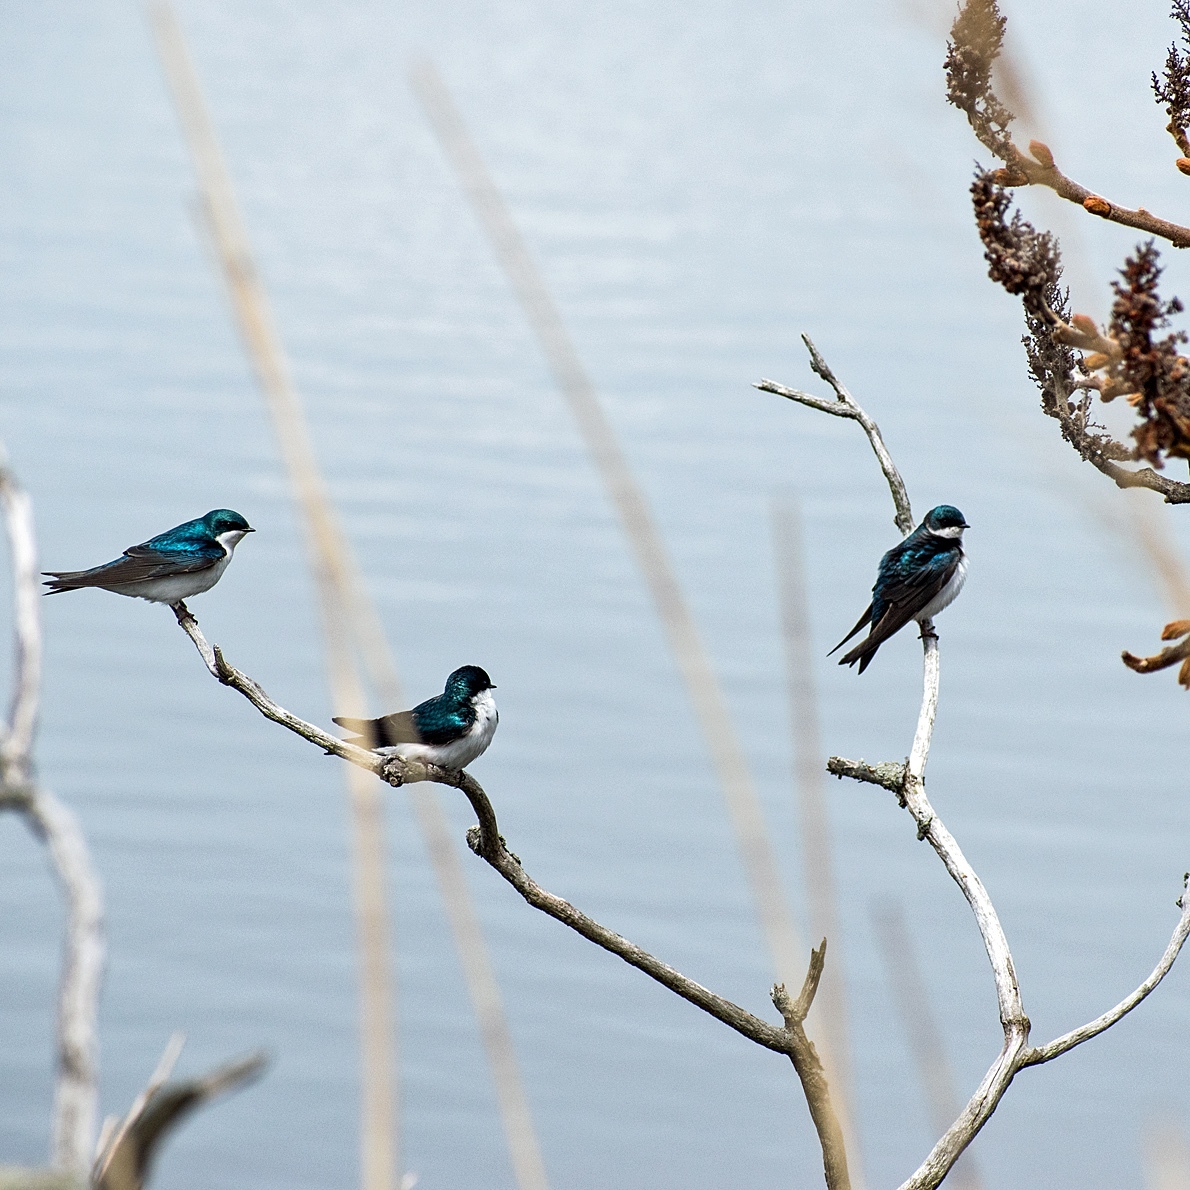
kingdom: Animalia
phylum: Chordata
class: Aves
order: Passeriformes
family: Hirundinidae
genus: Tachycineta
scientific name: Tachycineta bicolor
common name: Tree swallow
